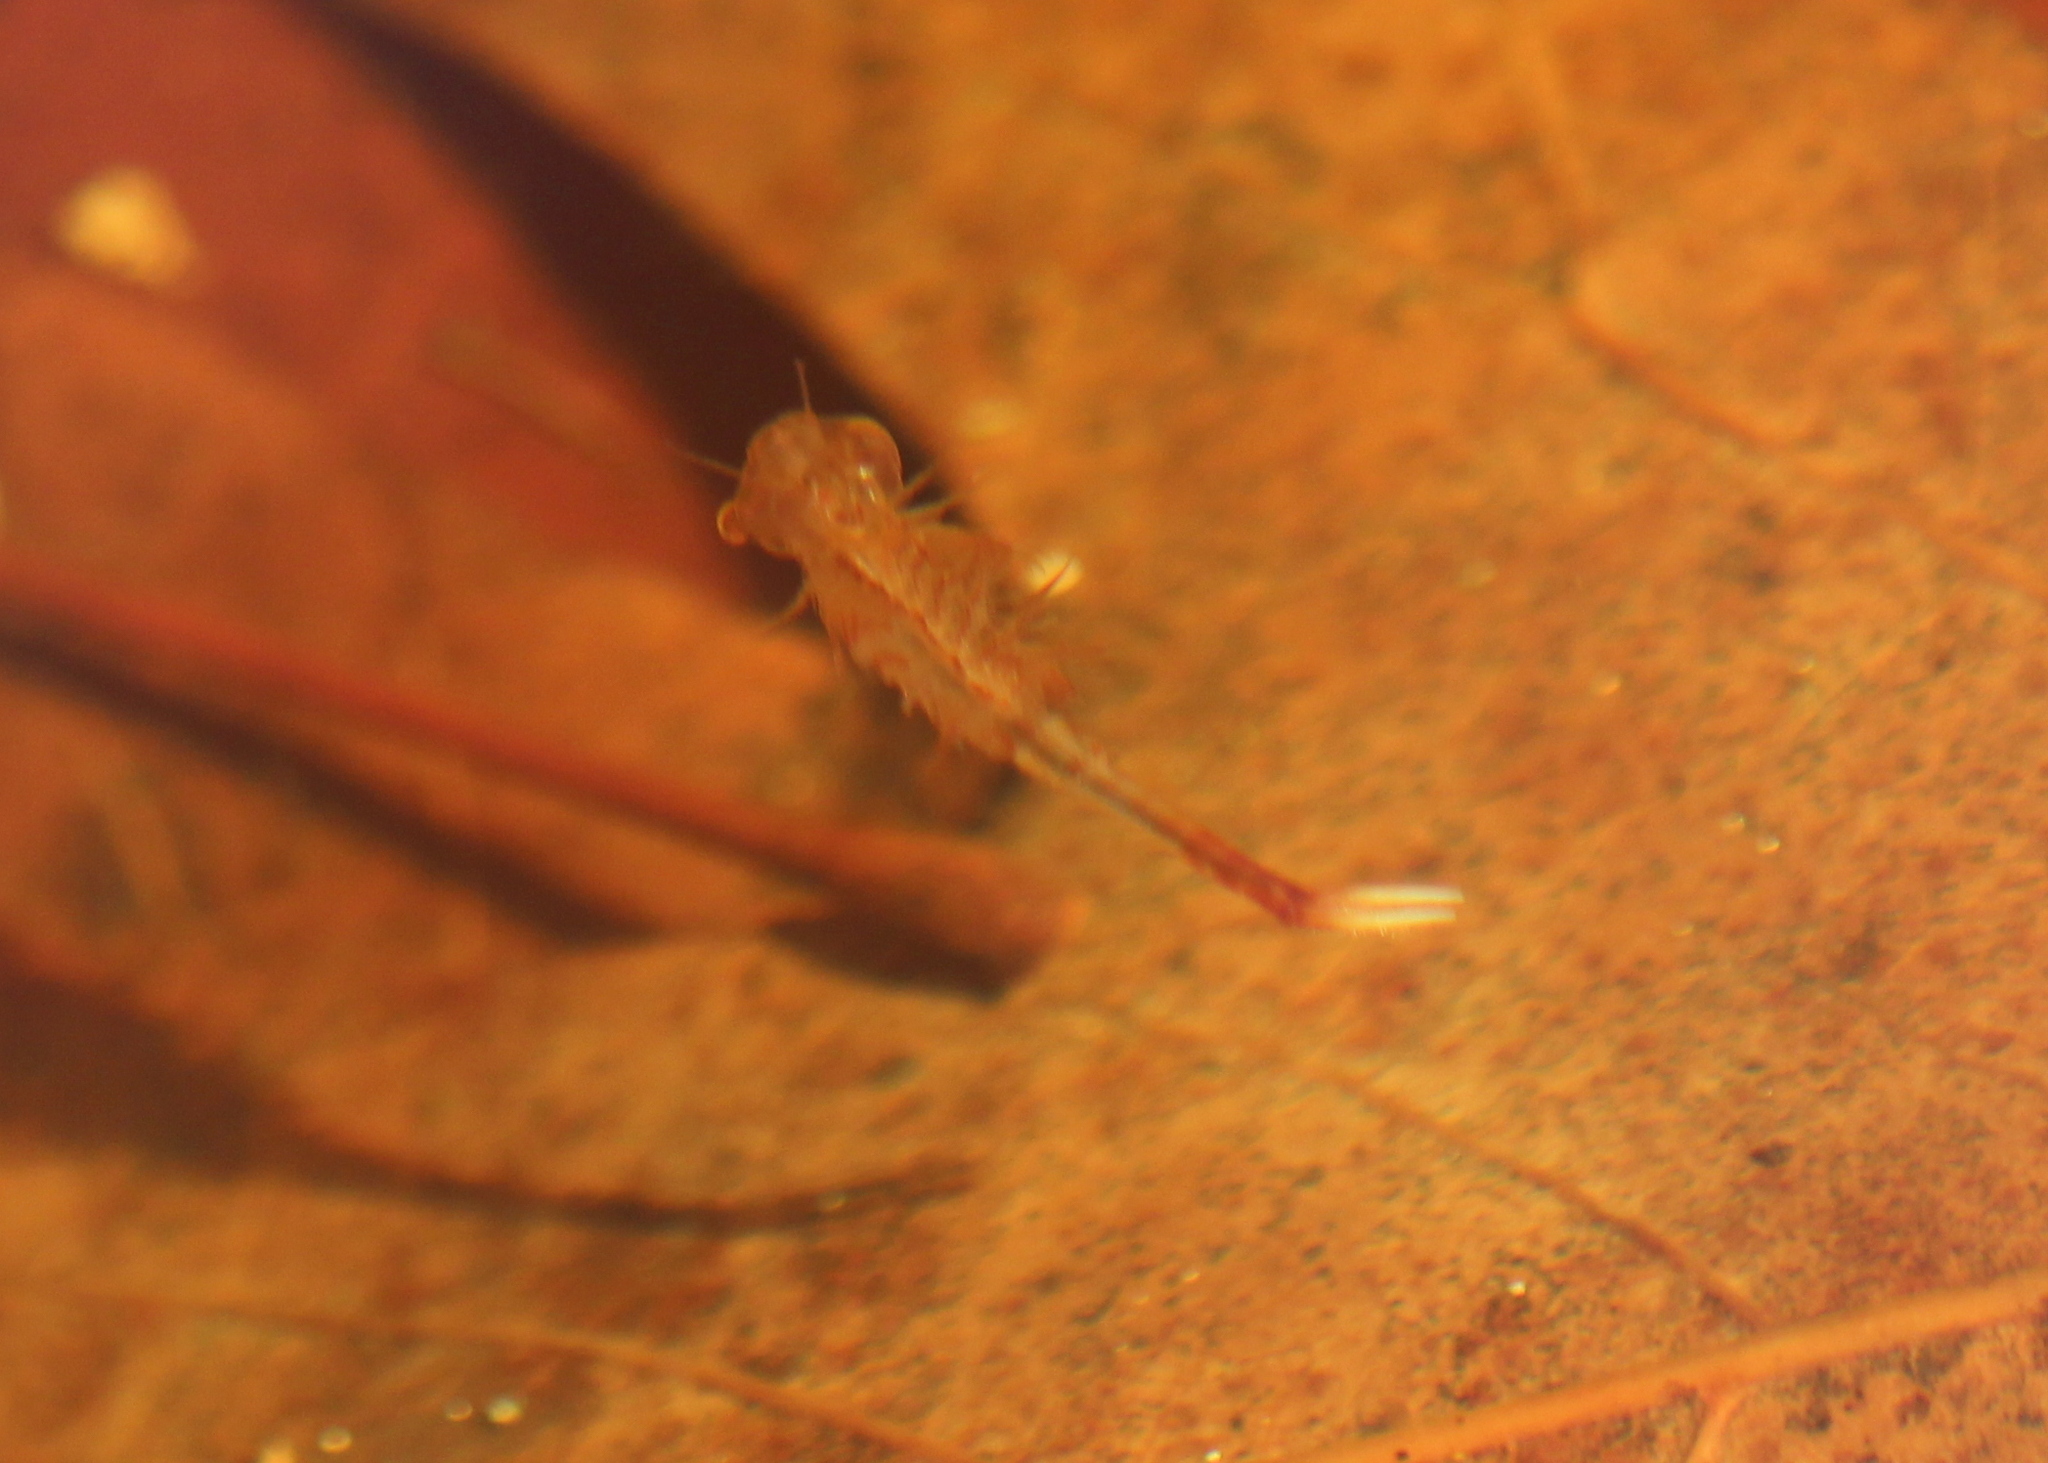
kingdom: Animalia
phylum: Arthropoda
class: Branchiopoda
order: Anostraca
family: Chirocephalidae
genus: Eubranchipus
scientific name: Eubranchipus vernalis
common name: Eastern fairy shrimp
